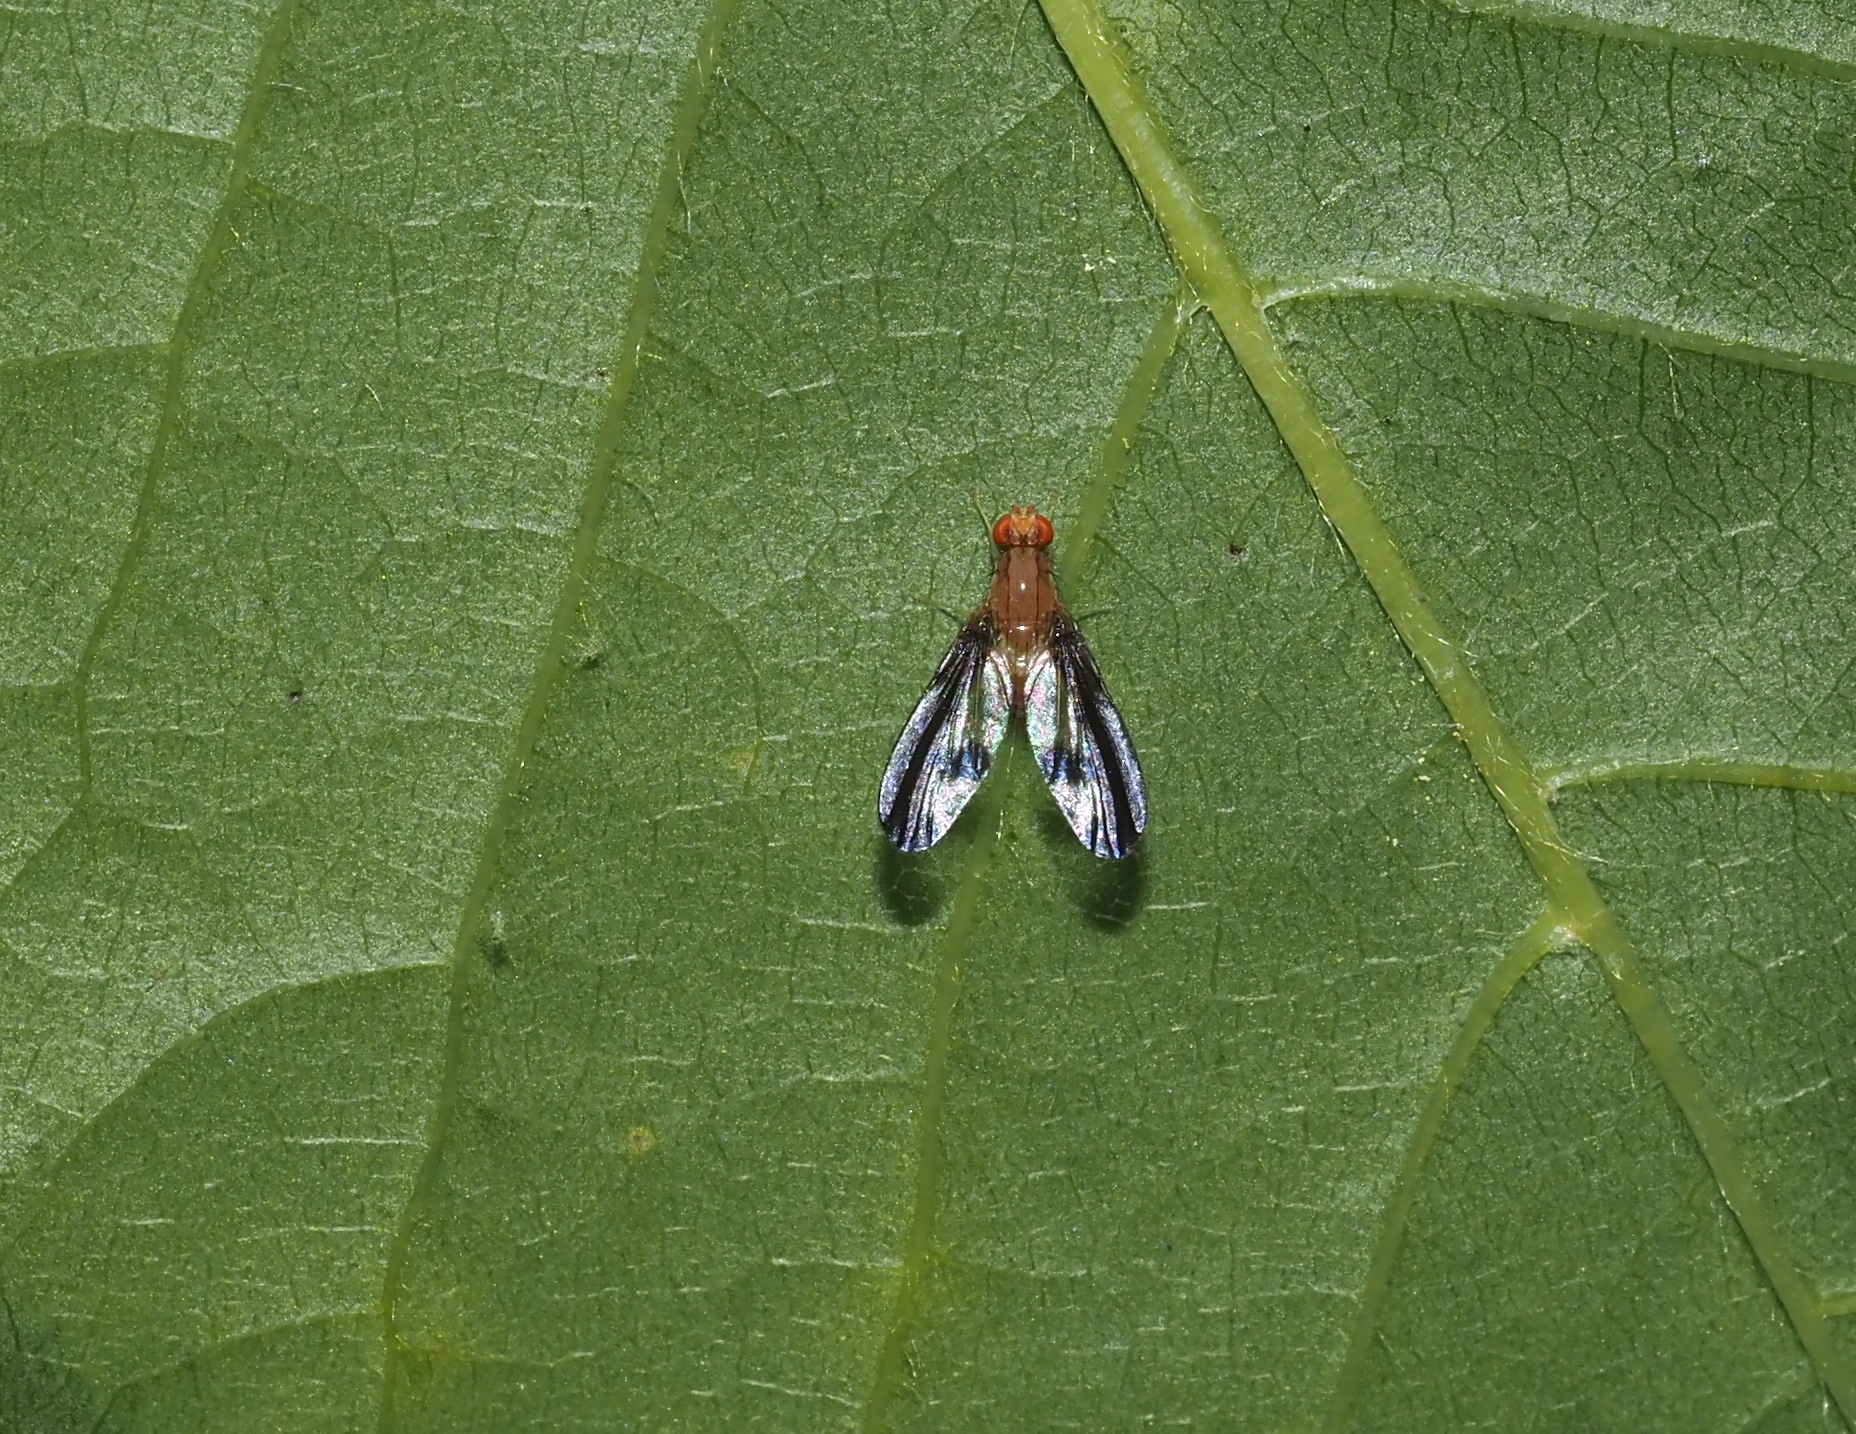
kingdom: Animalia
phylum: Arthropoda
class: Insecta
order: Diptera
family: Pallopteridae
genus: Toxonevra
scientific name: Toxonevra superba
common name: Antlered flutter fly
